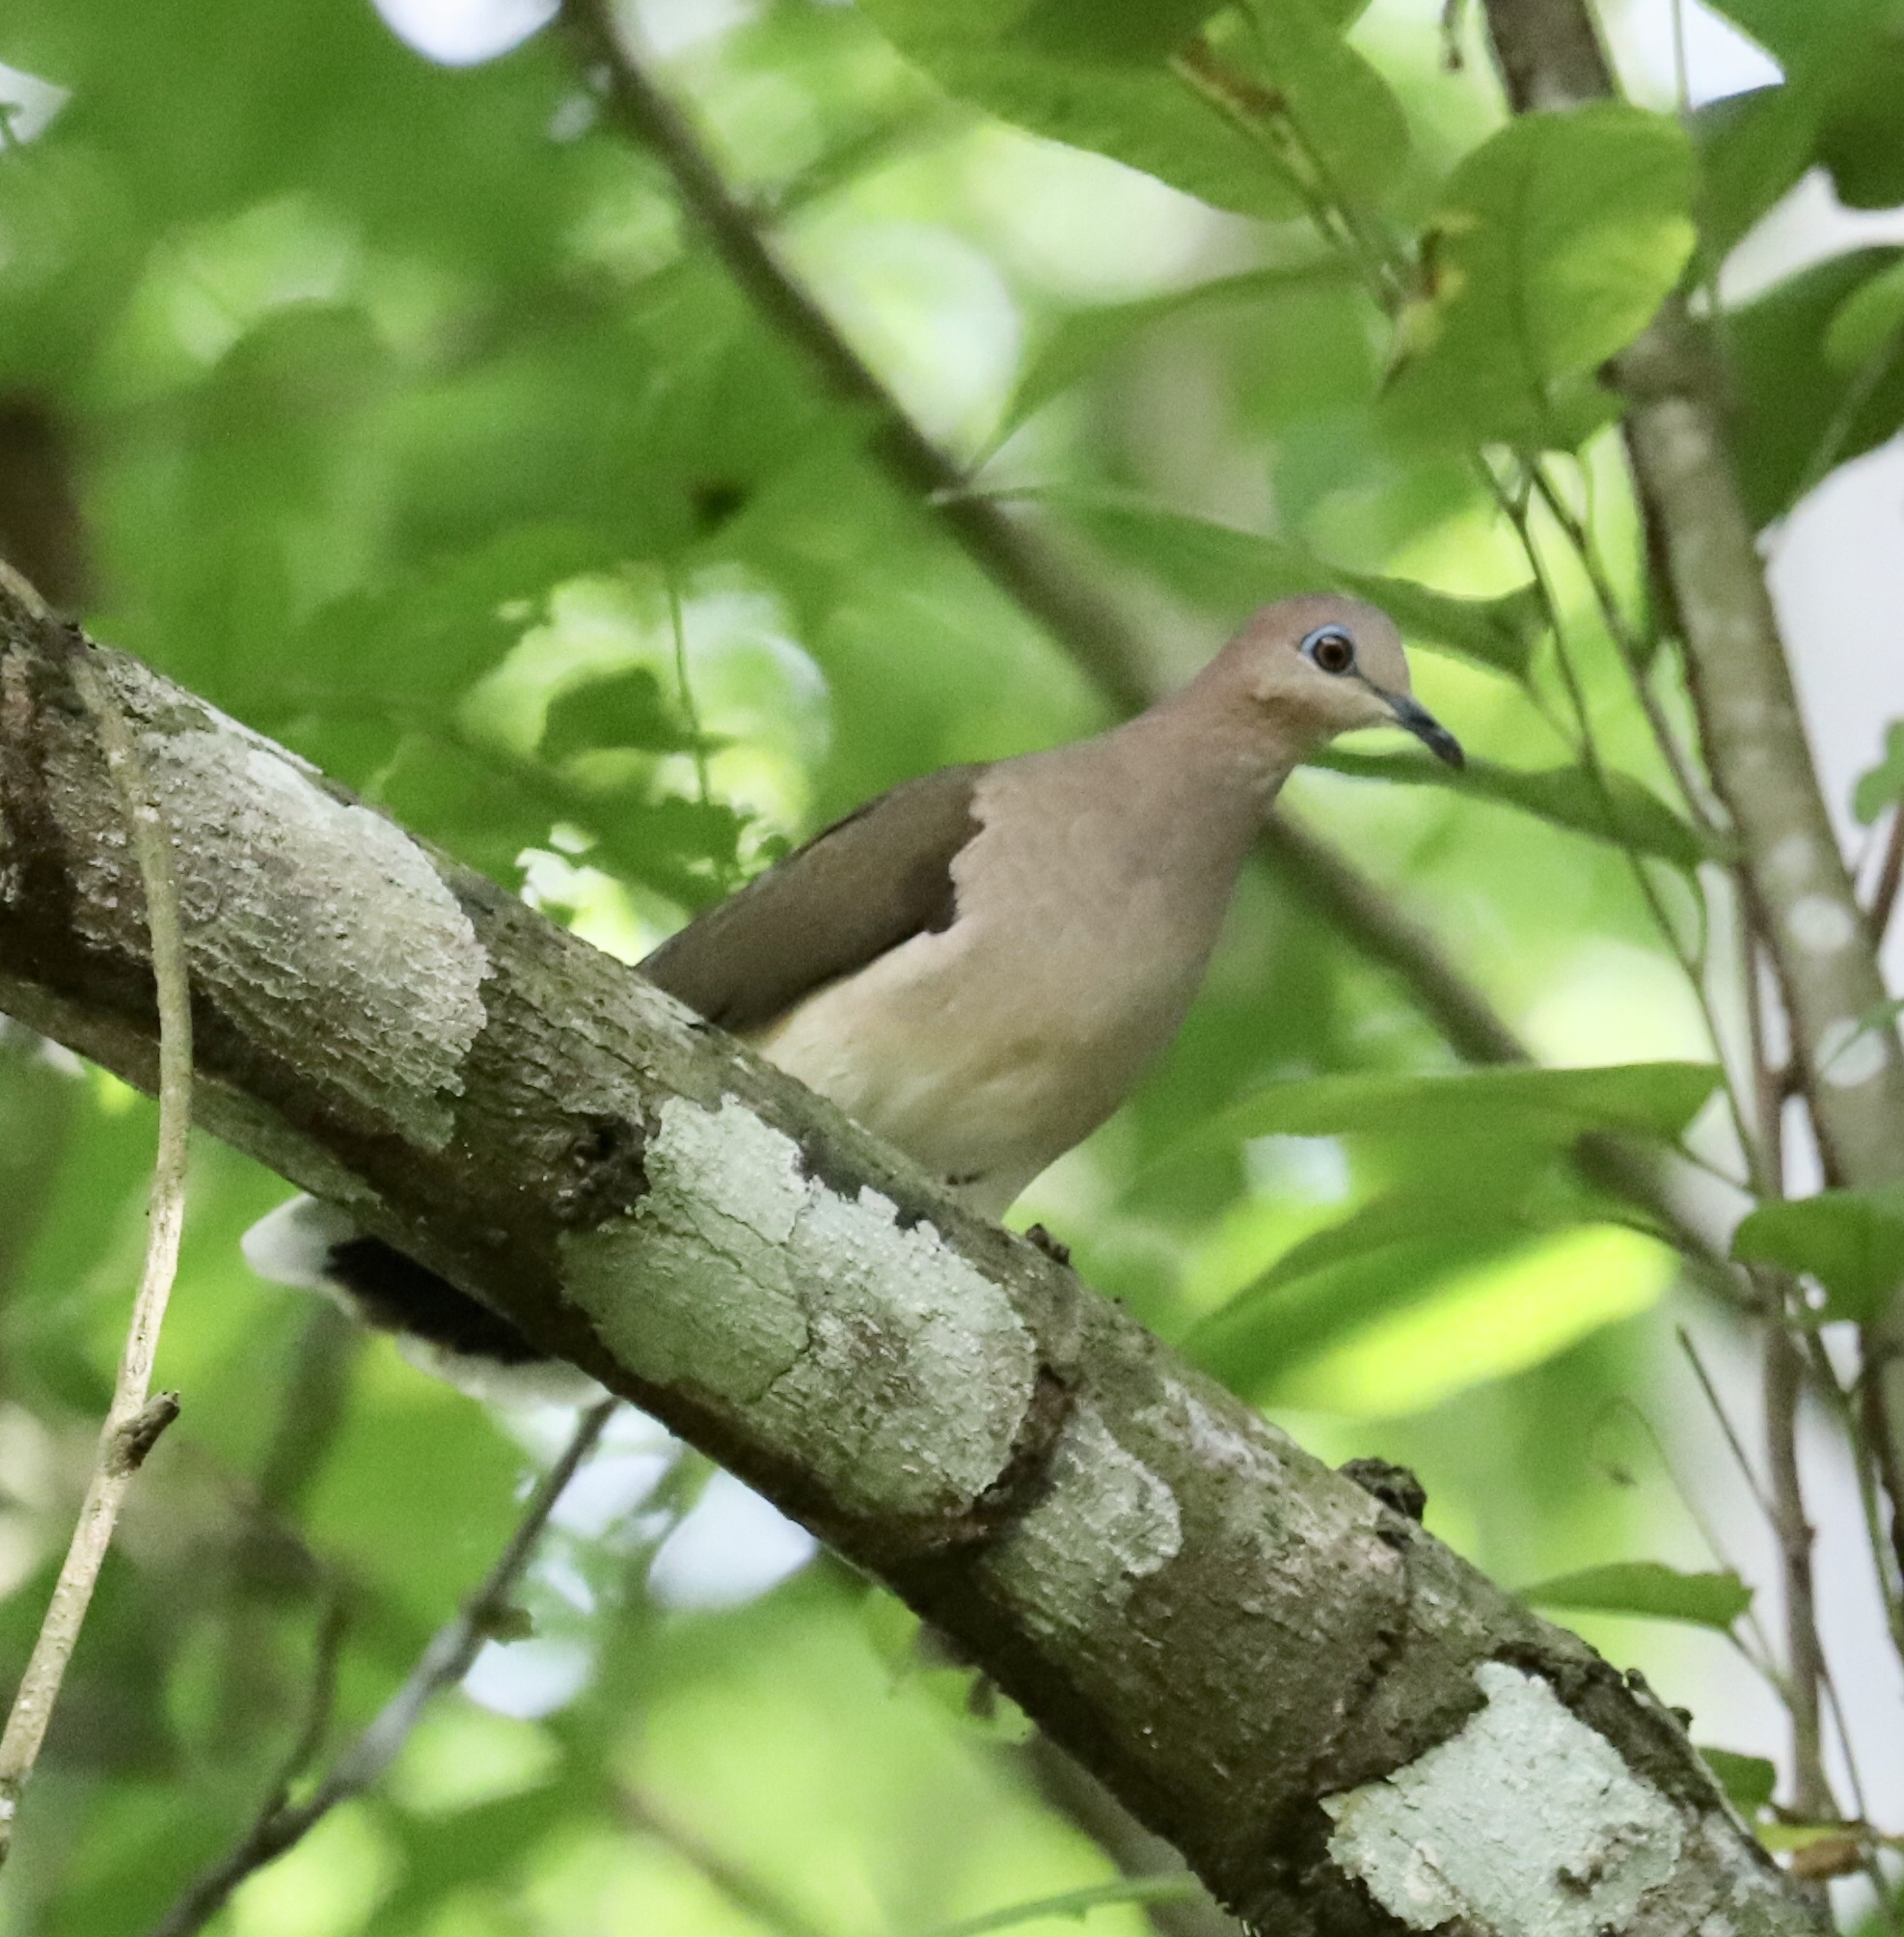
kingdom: Animalia
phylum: Chordata
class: Aves
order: Columbiformes
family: Columbidae
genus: Leptotila
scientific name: Leptotila verreauxi
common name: White-tipped dove
